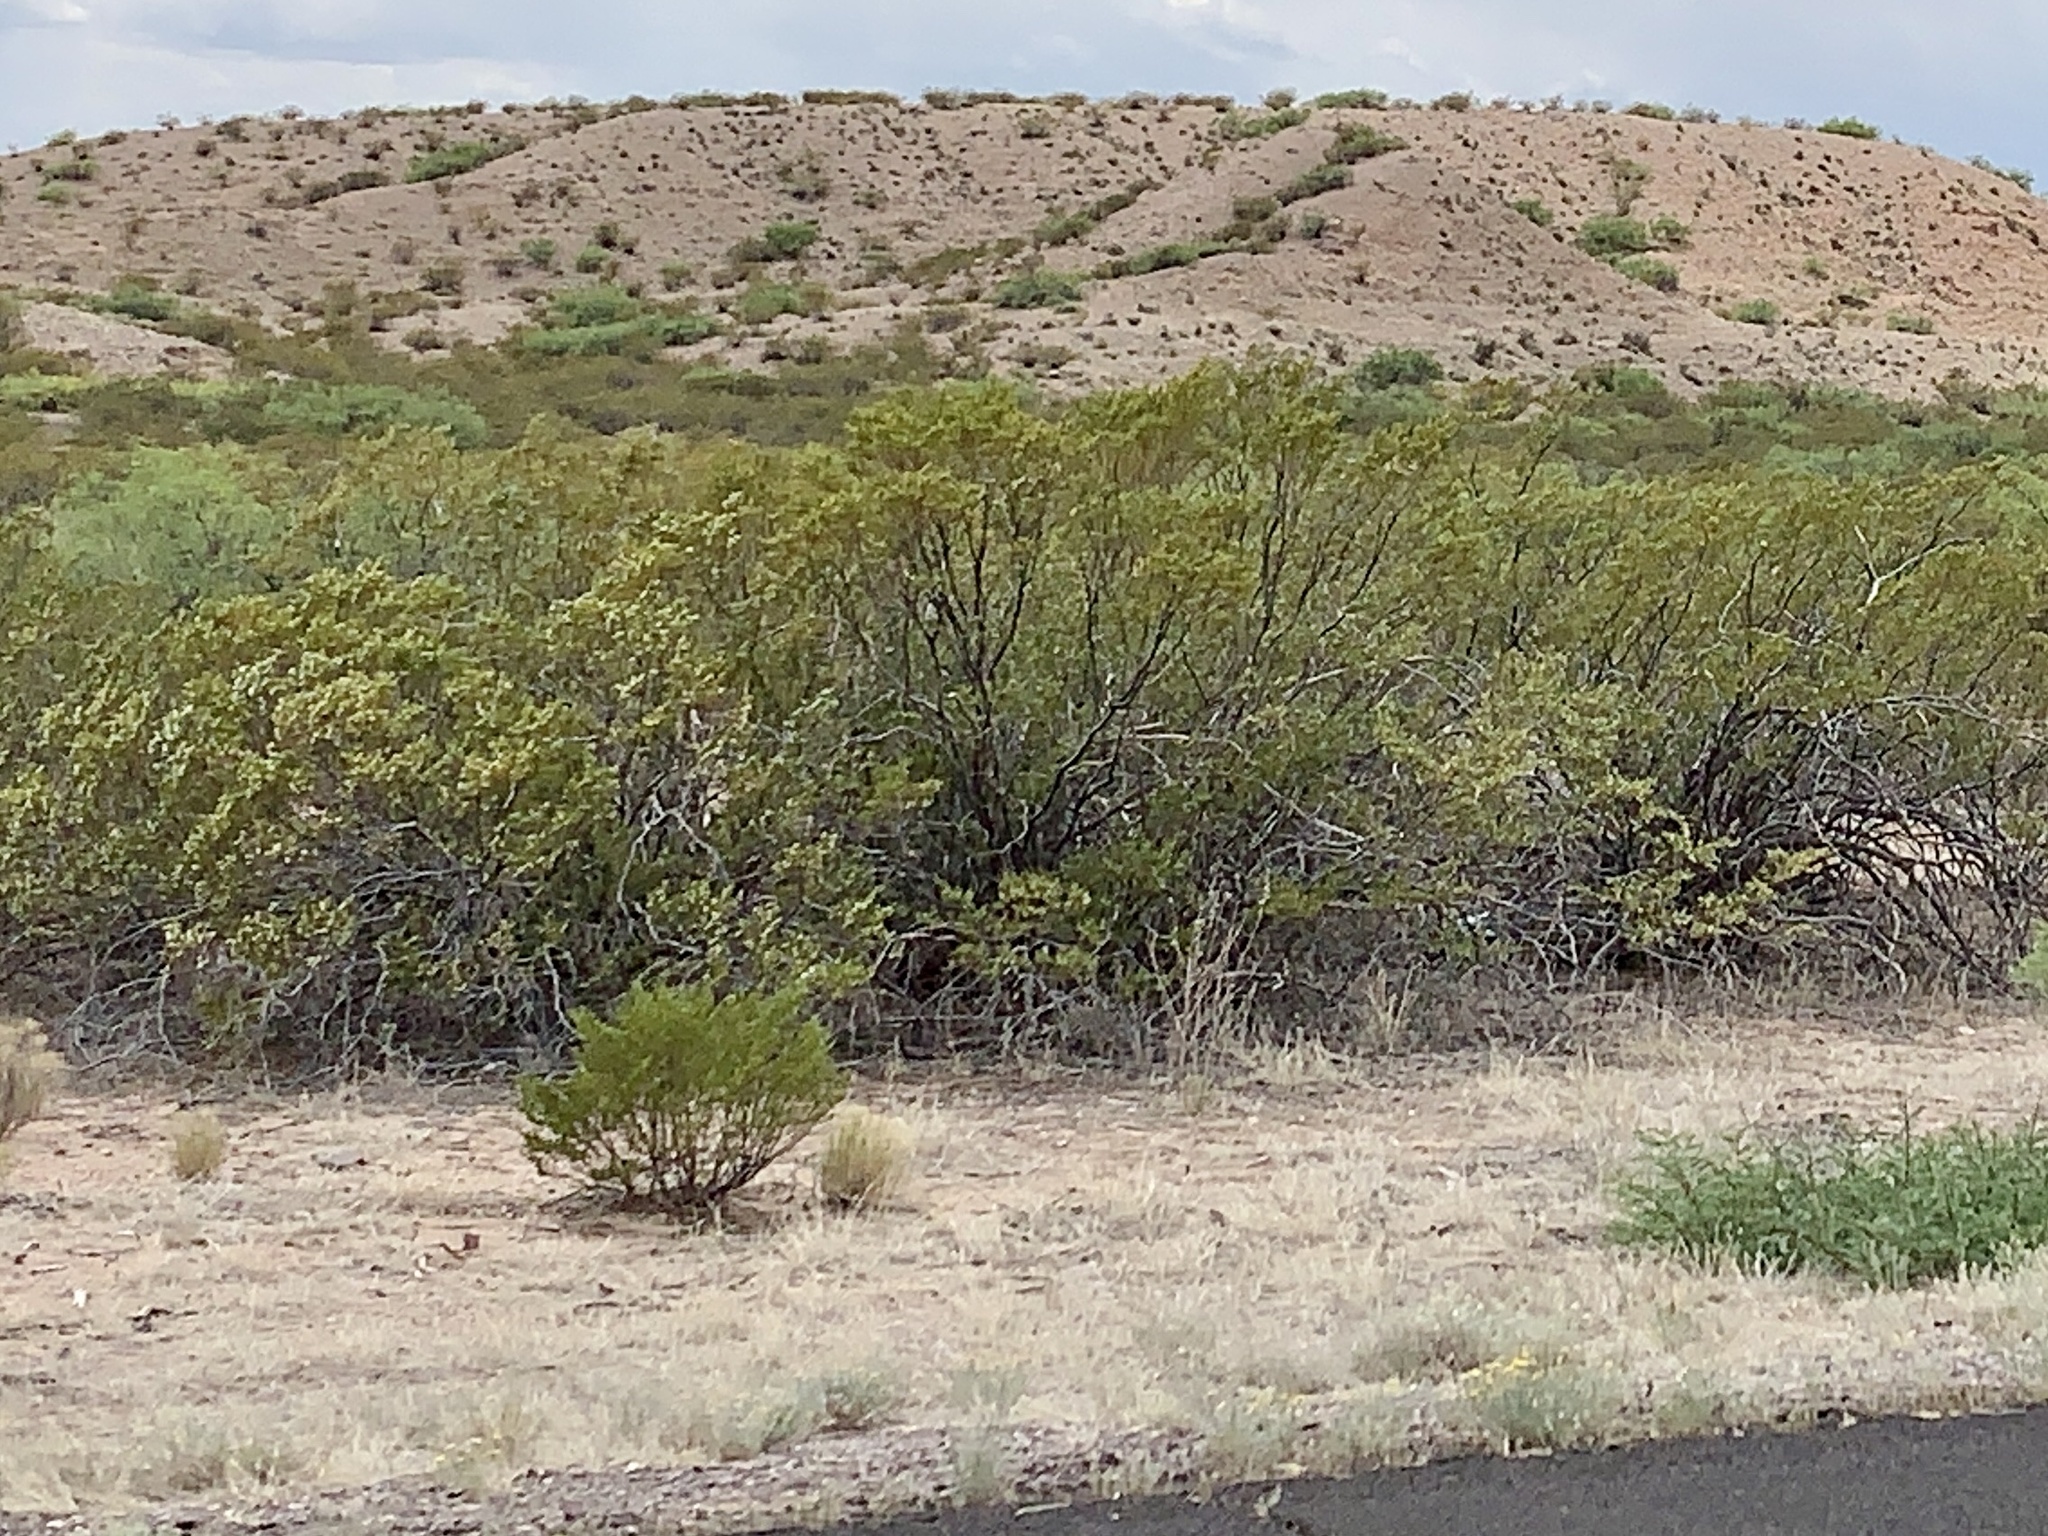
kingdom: Plantae
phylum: Tracheophyta
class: Magnoliopsida
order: Zygophyllales
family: Zygophyllaceae
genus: Larrea
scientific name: Larrea tridentata
